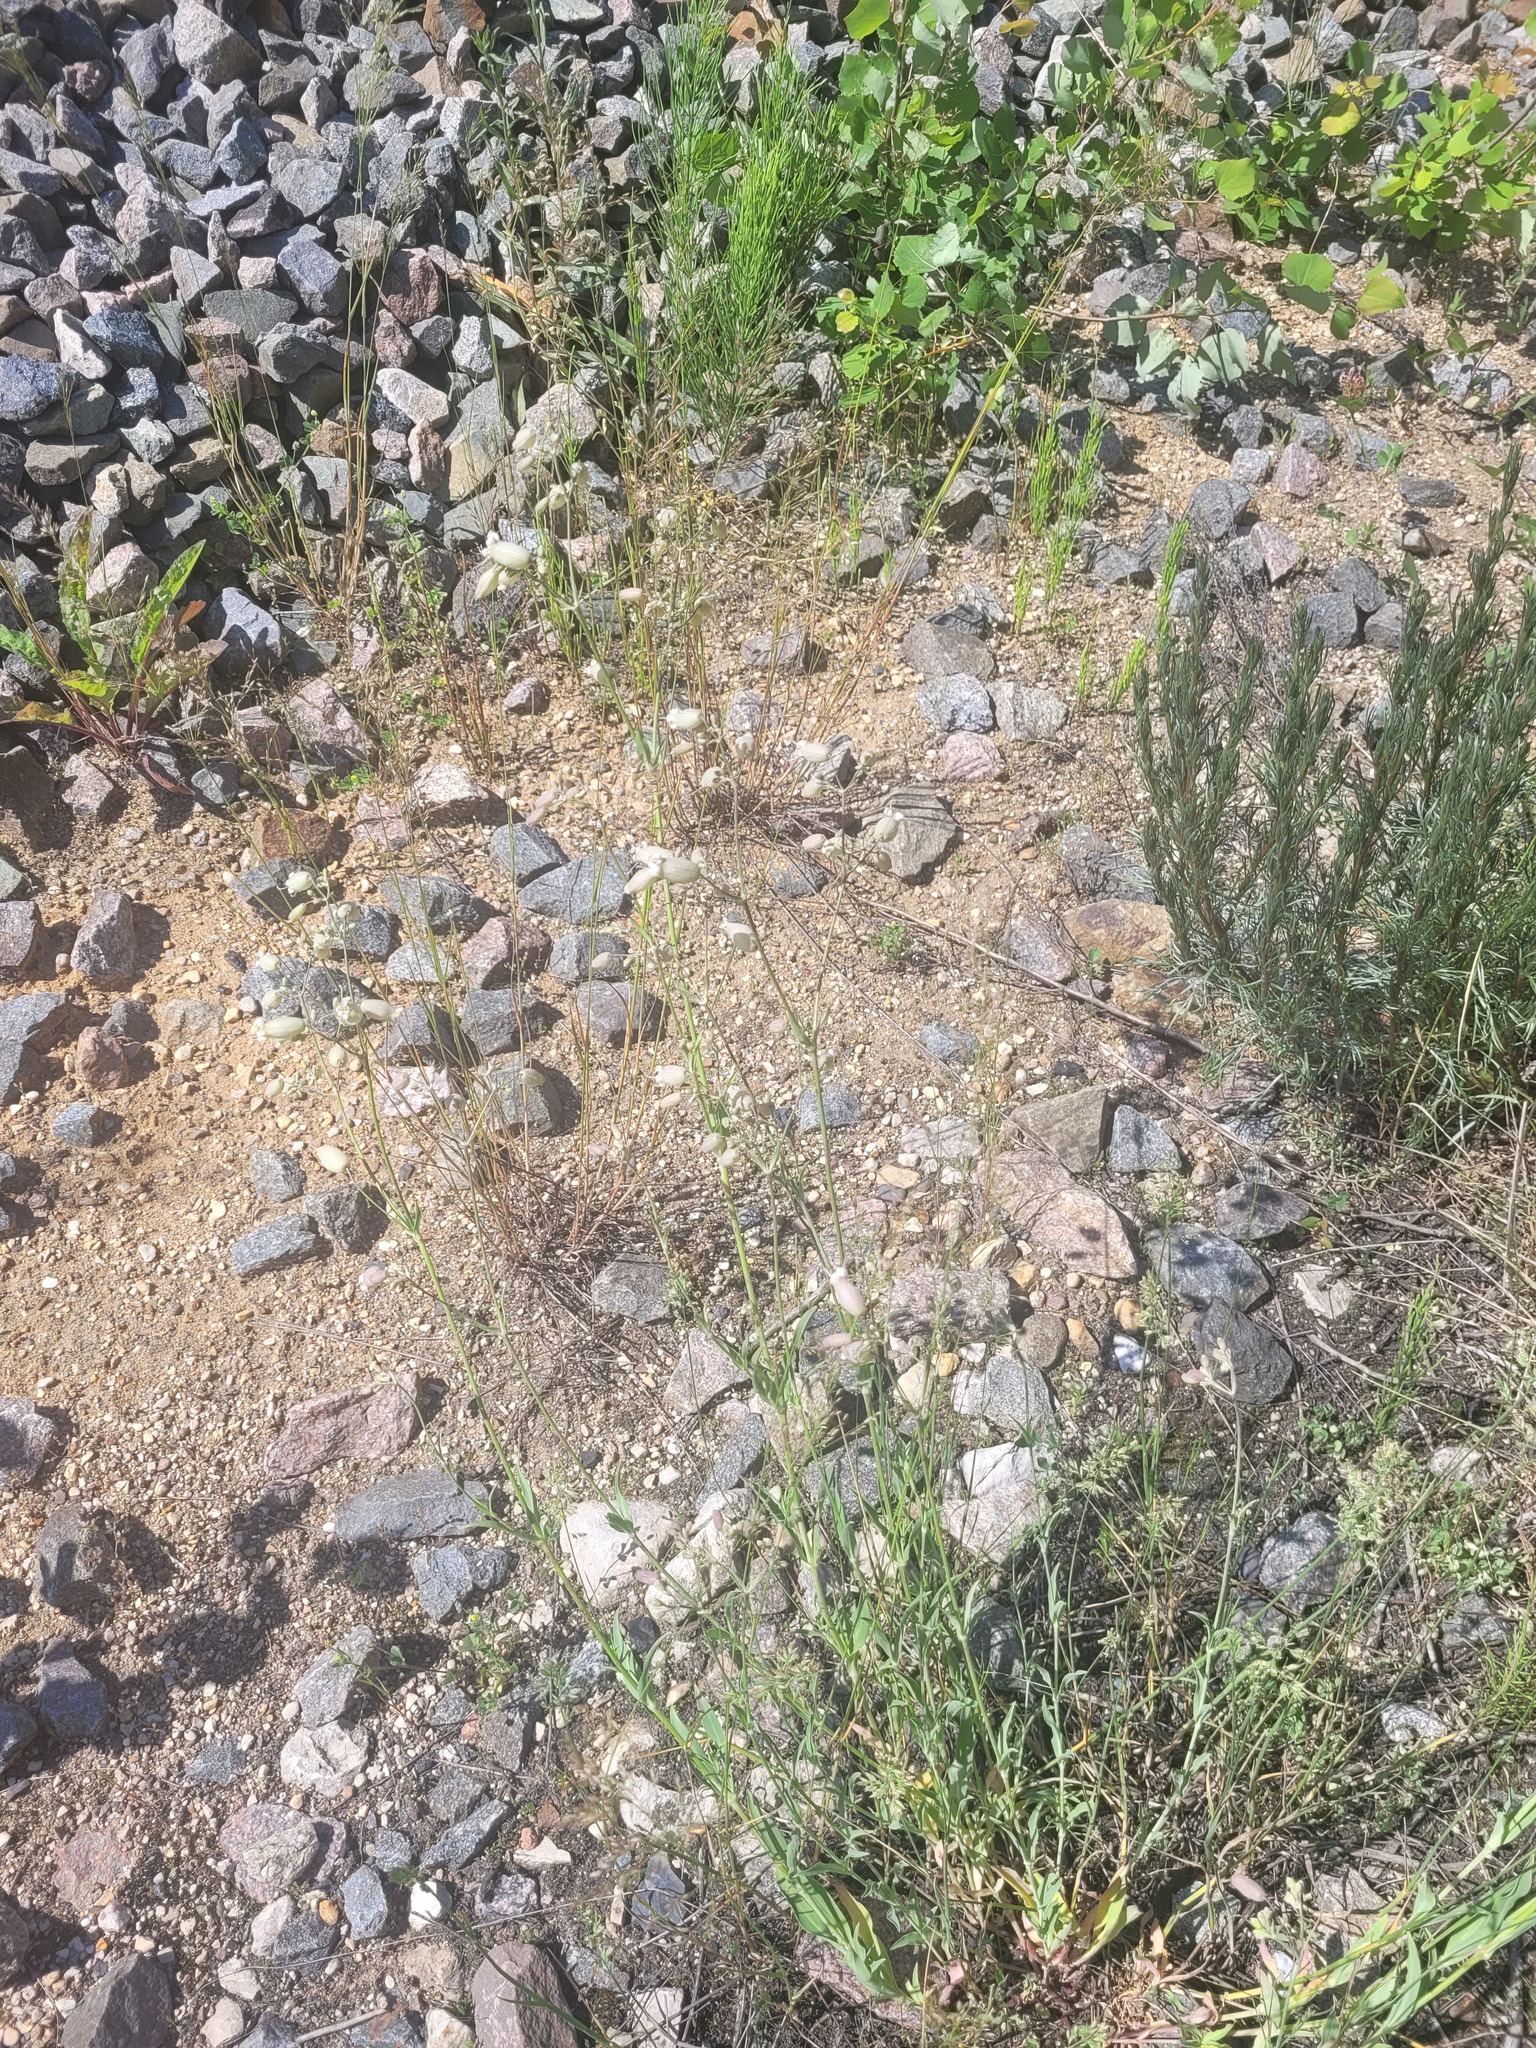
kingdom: Plantae
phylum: Tracheophyta
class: Magnoliopsida
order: Caryophyllales
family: Caryophyllaceae
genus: Silene
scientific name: Silene vulgaris
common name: Bladder campion
